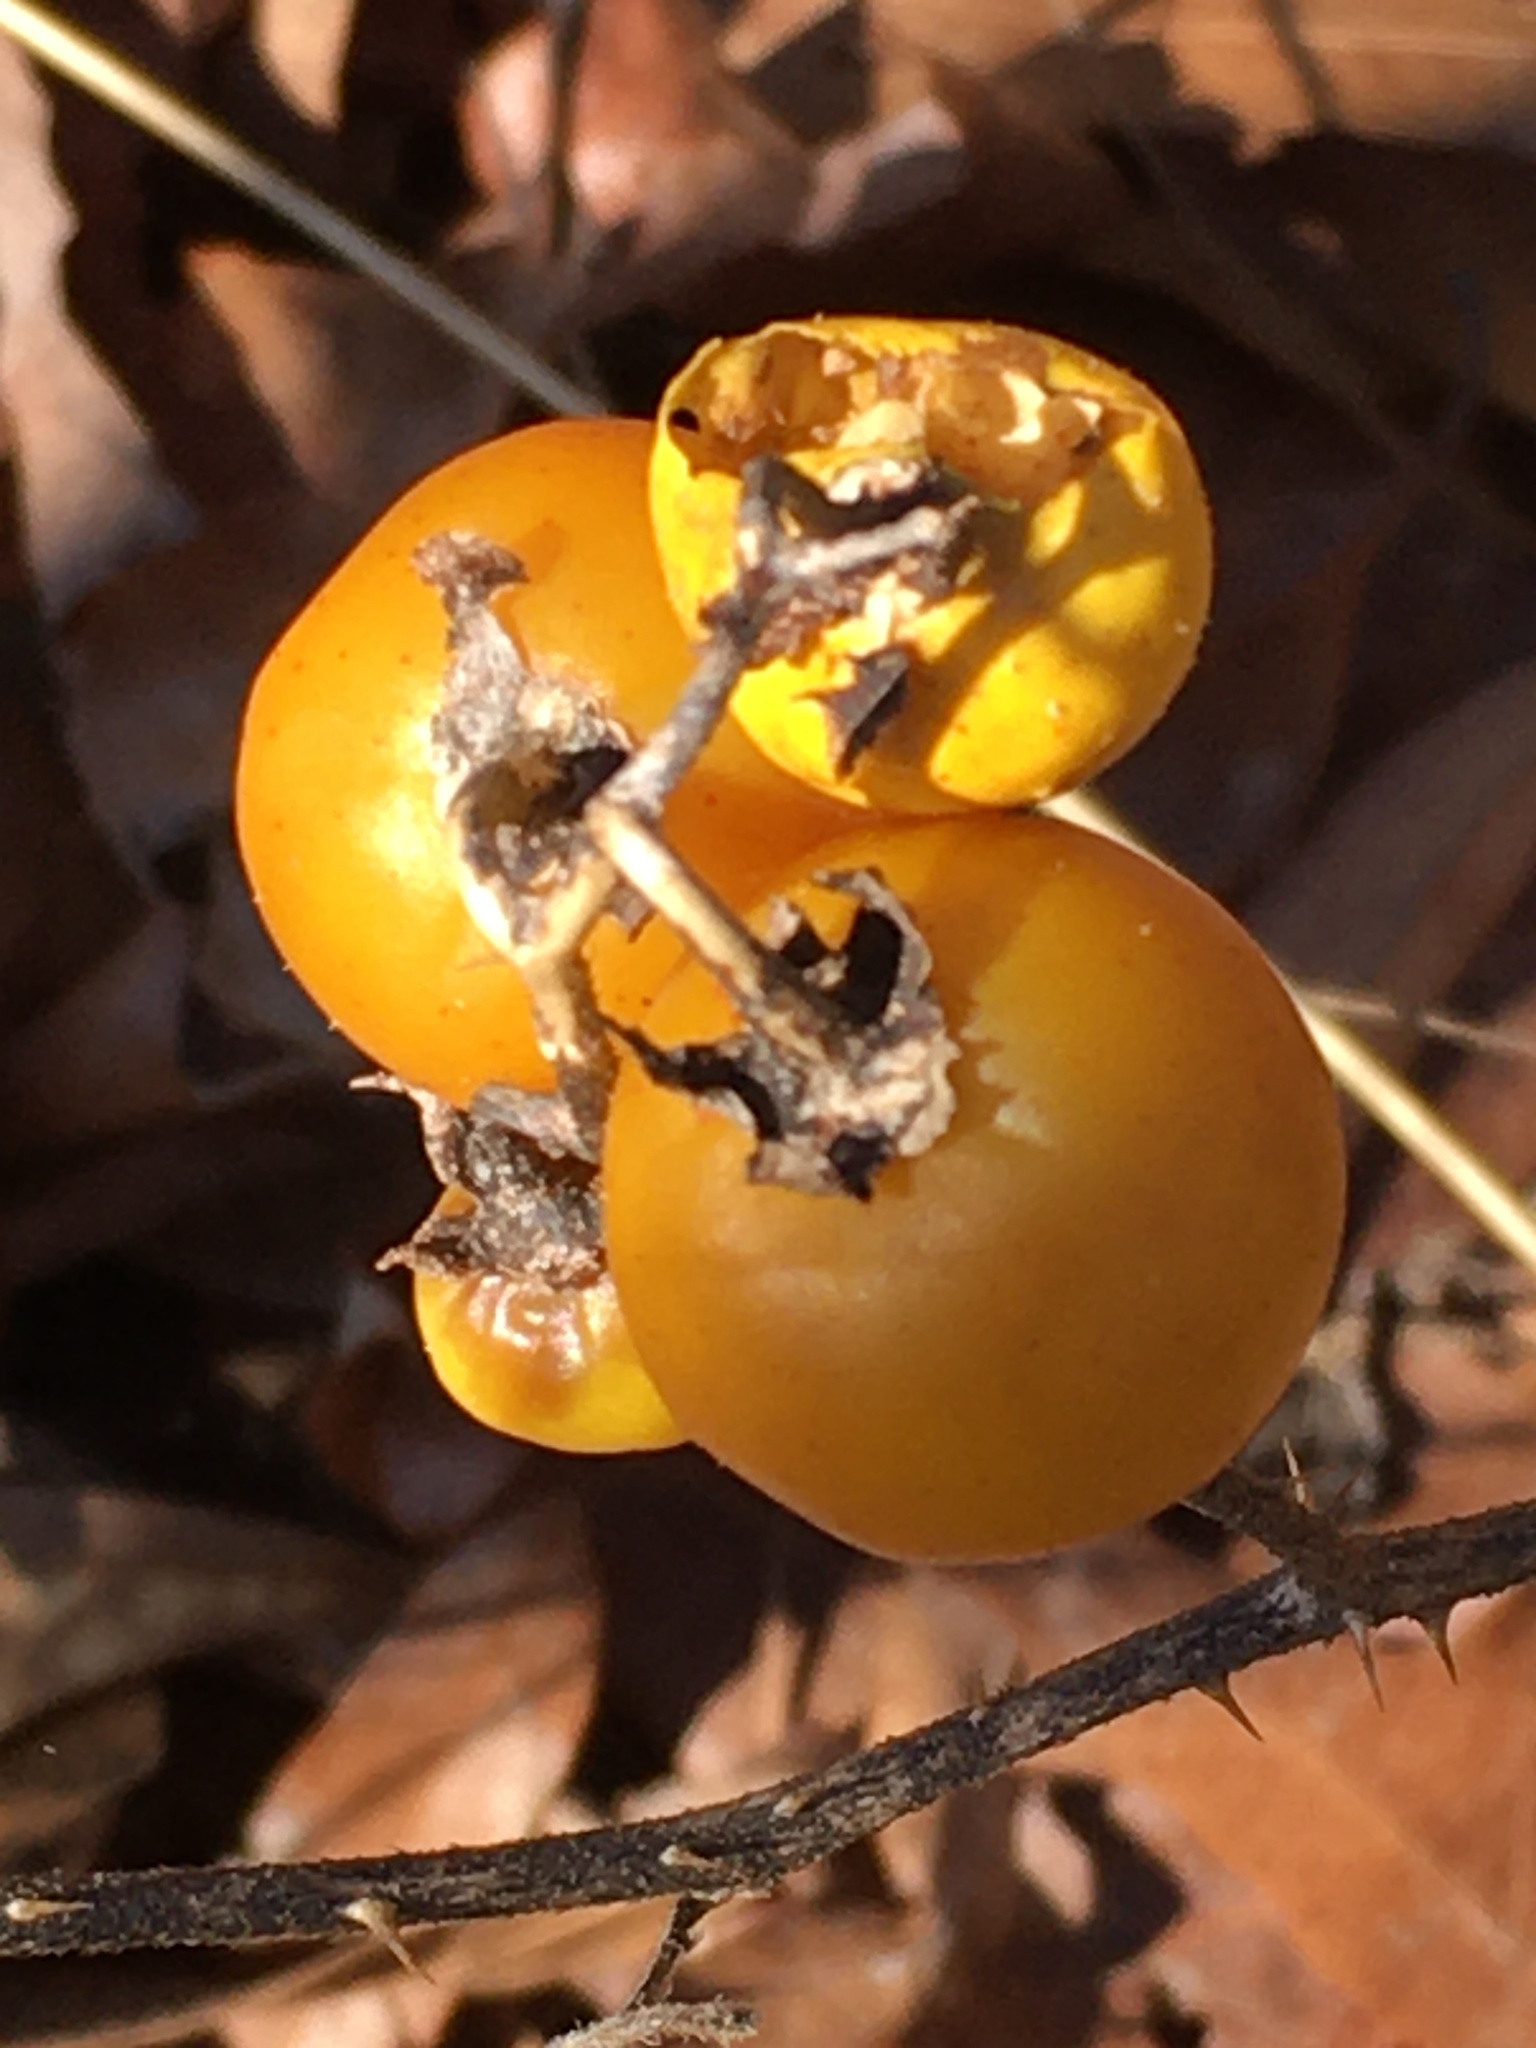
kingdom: Plantae
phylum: Tracheophyta
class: Magnoliopsida
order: Solanales
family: Solanaceae
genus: Solanum
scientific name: Solanum carolinense
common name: Horse-nettle
